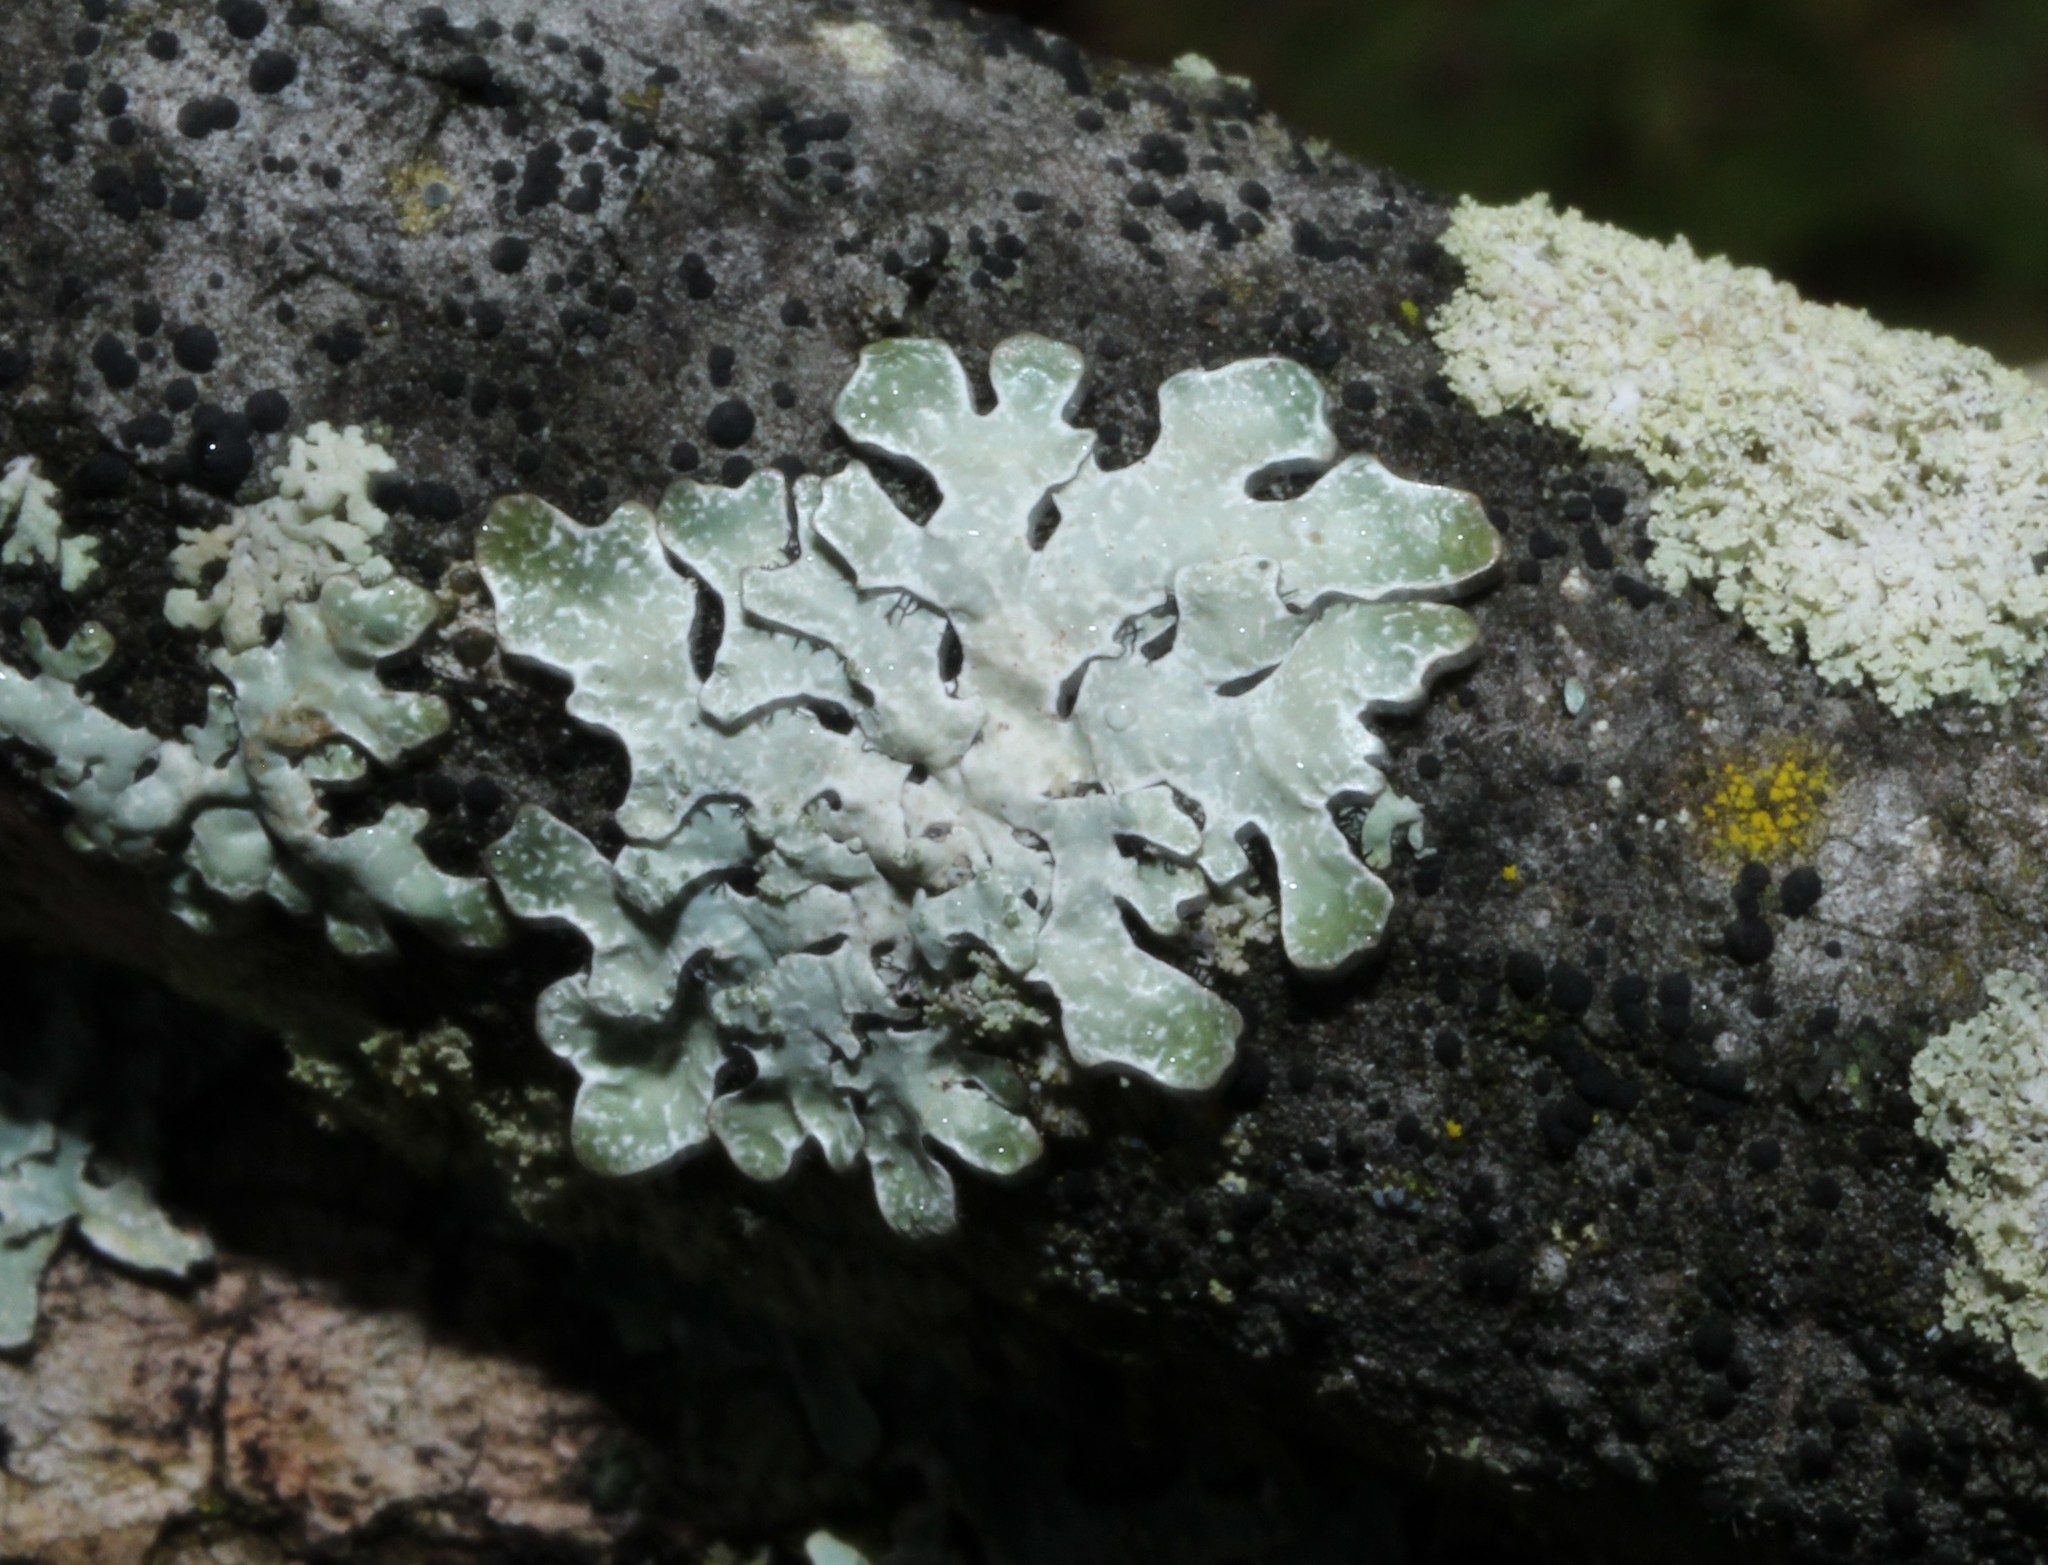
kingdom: Fungi
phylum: Ascomycota
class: Lecanoromycetes
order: Lecanorales
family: Parmeliaceae
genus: Parmelia
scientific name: Parmelia sulcata
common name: Netted shield lichen
